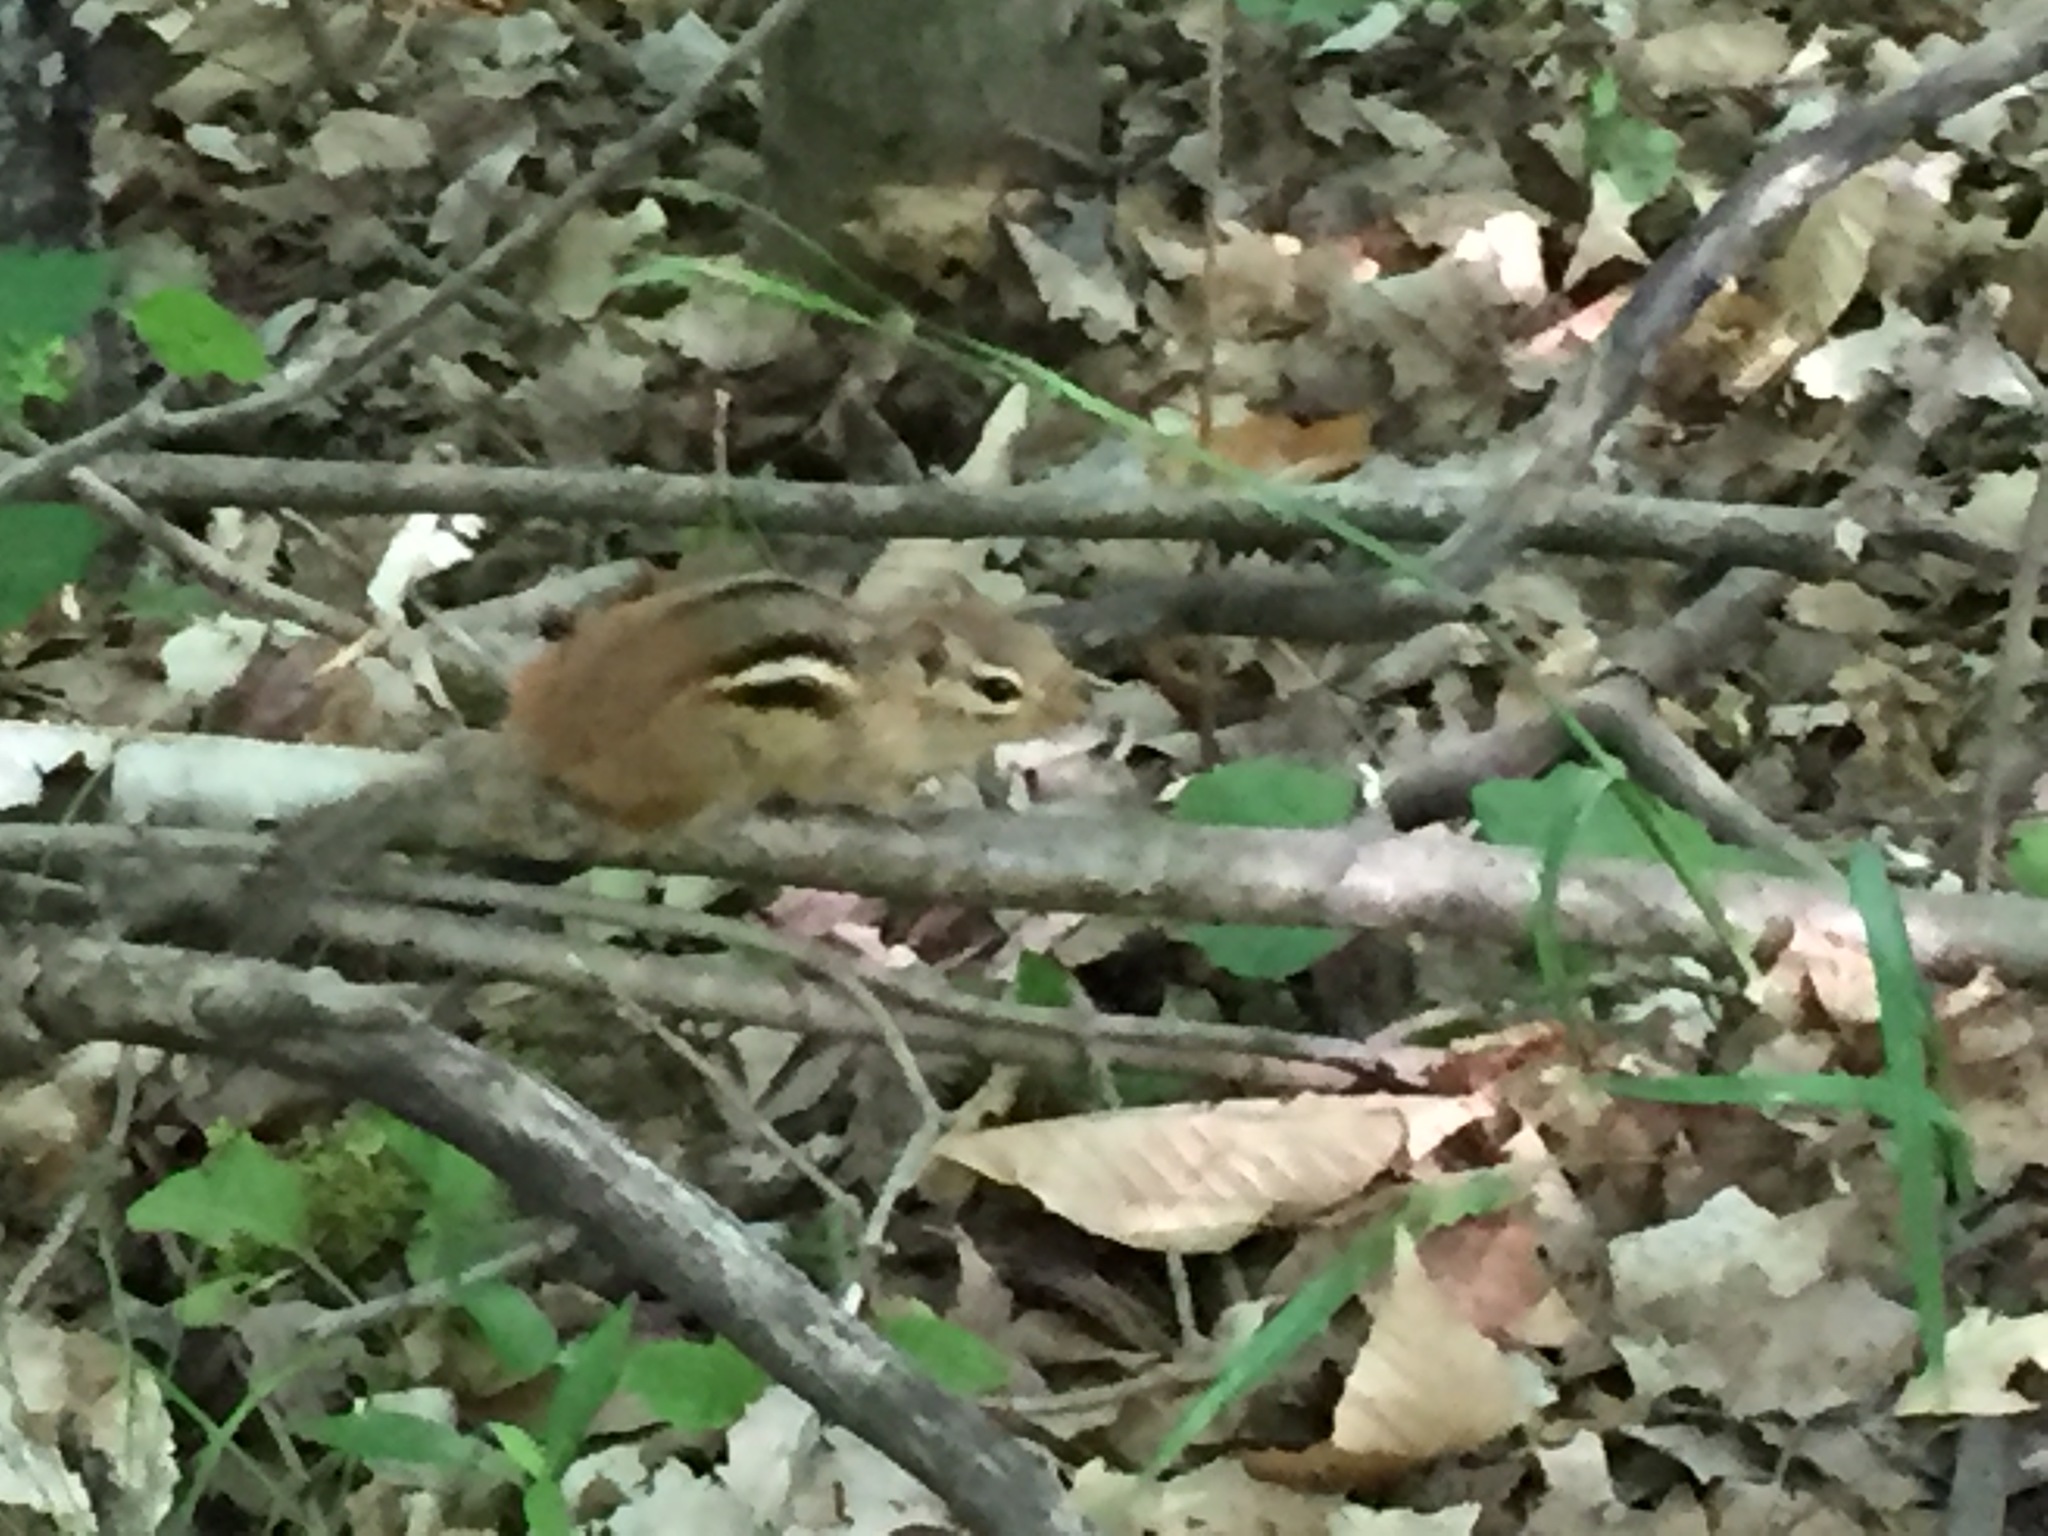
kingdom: Animalia
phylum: Chordata
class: Mammalia
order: Rodentia
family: Sciuridae
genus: Tamias
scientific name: Tamias striatus
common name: Eastern chipmunk
